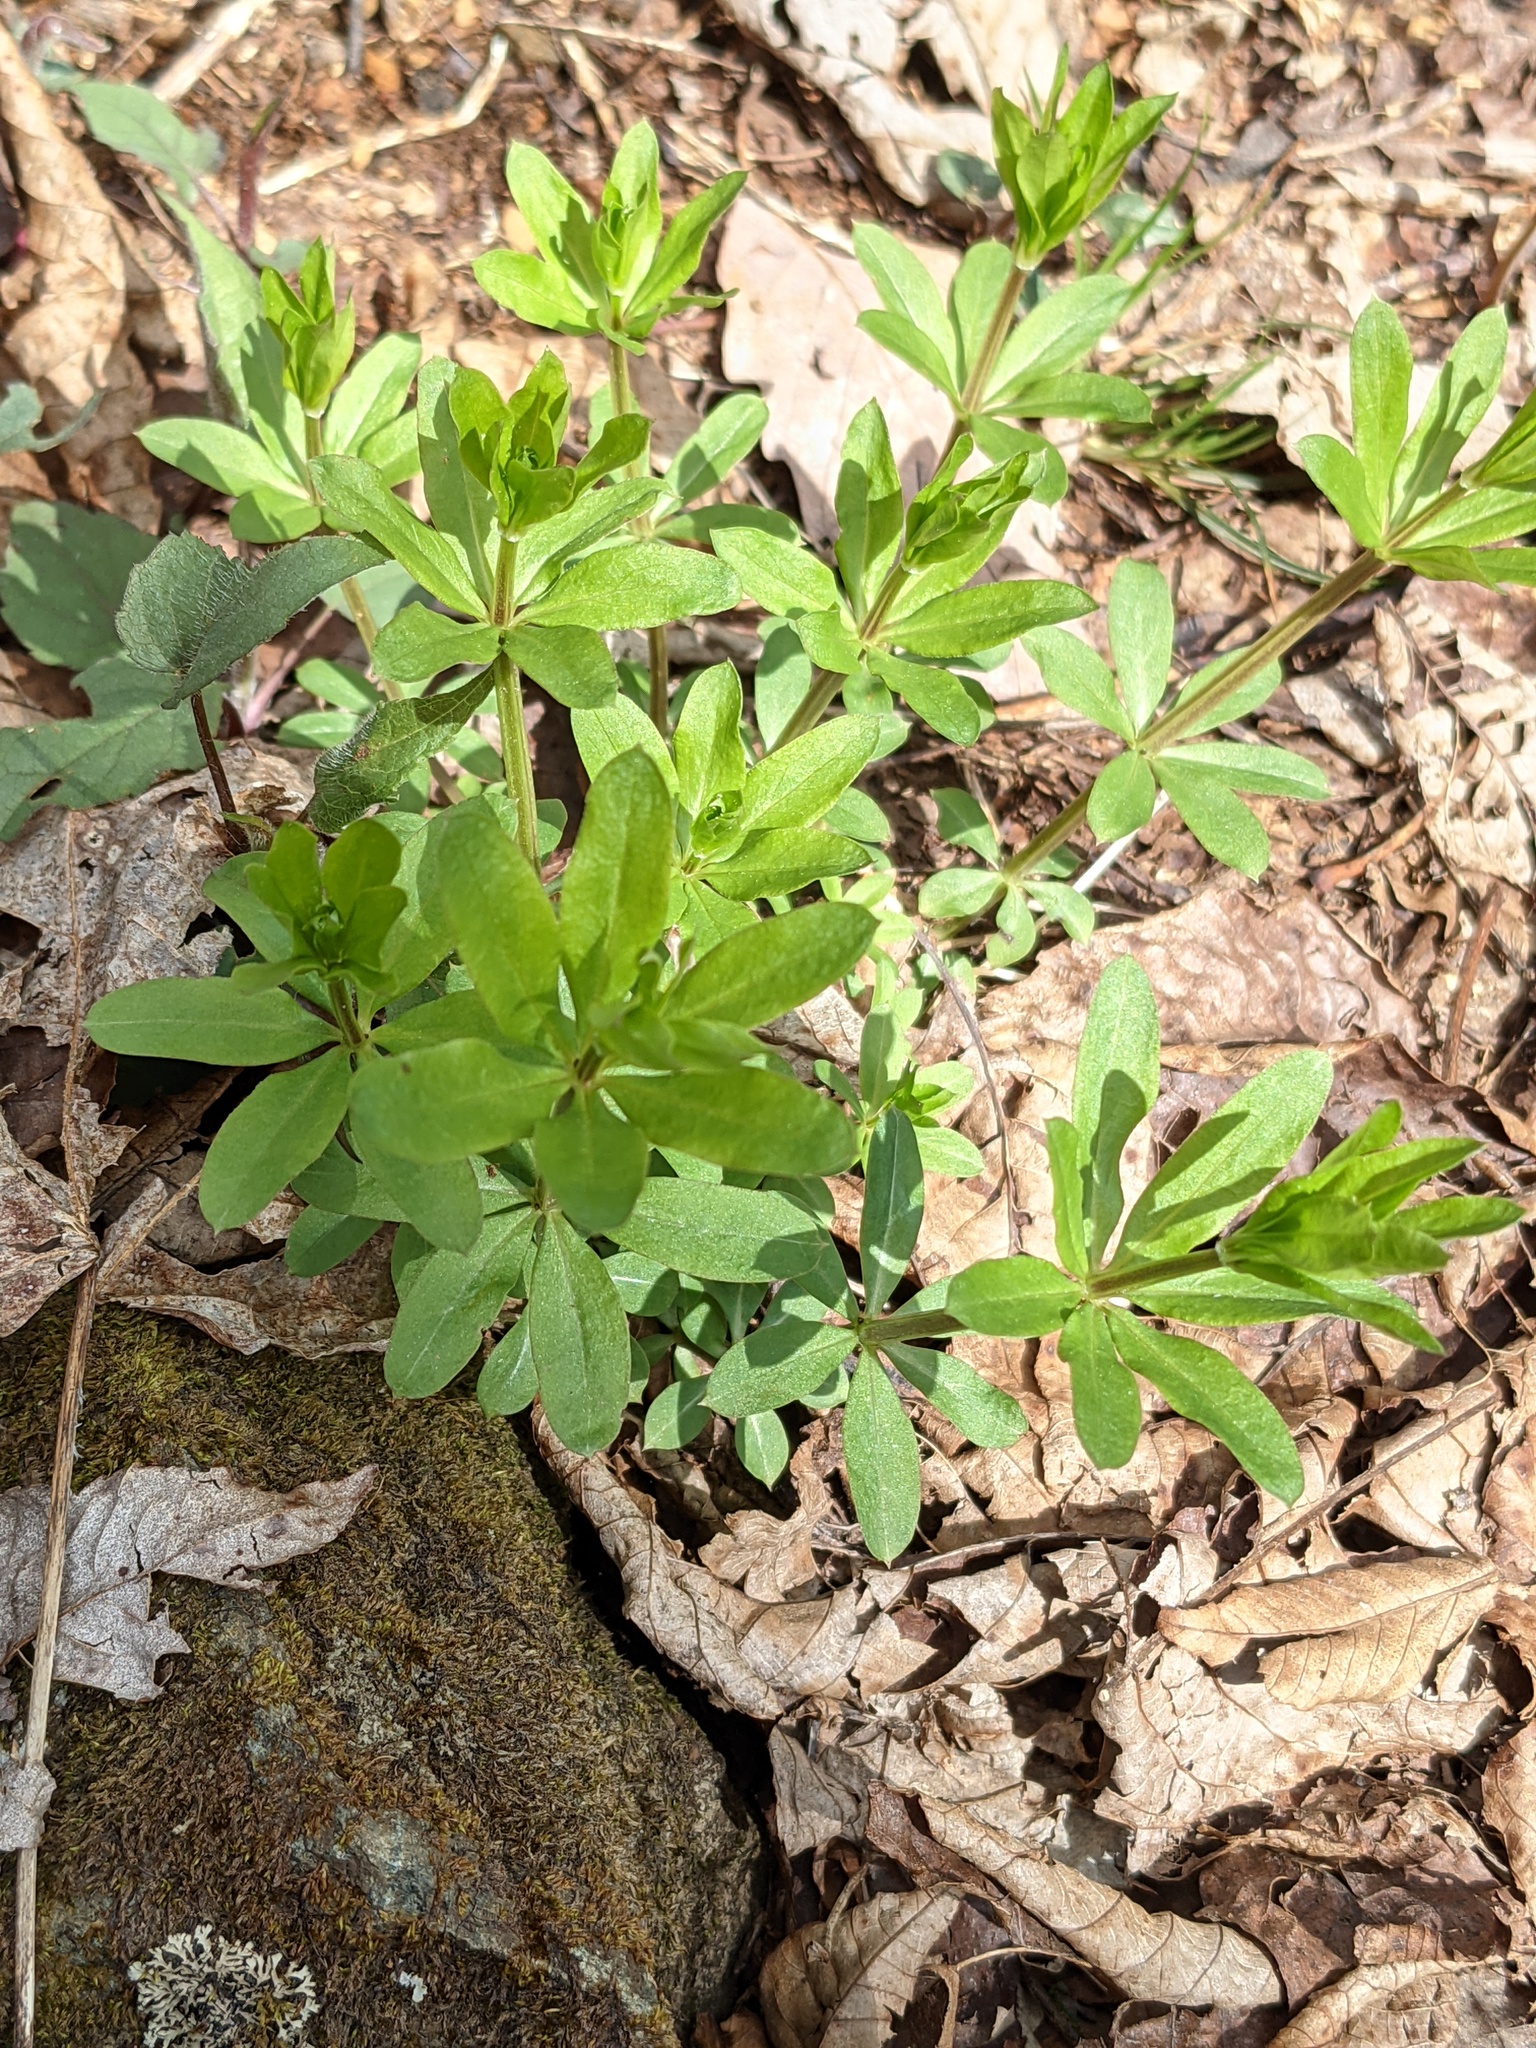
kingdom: Plantae
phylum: Tracheophyta
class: Magnoliopsida
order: Gentianales
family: Rubiaceae
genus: Galium
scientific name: Galium triflorum
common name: Fragrant bedstraw
